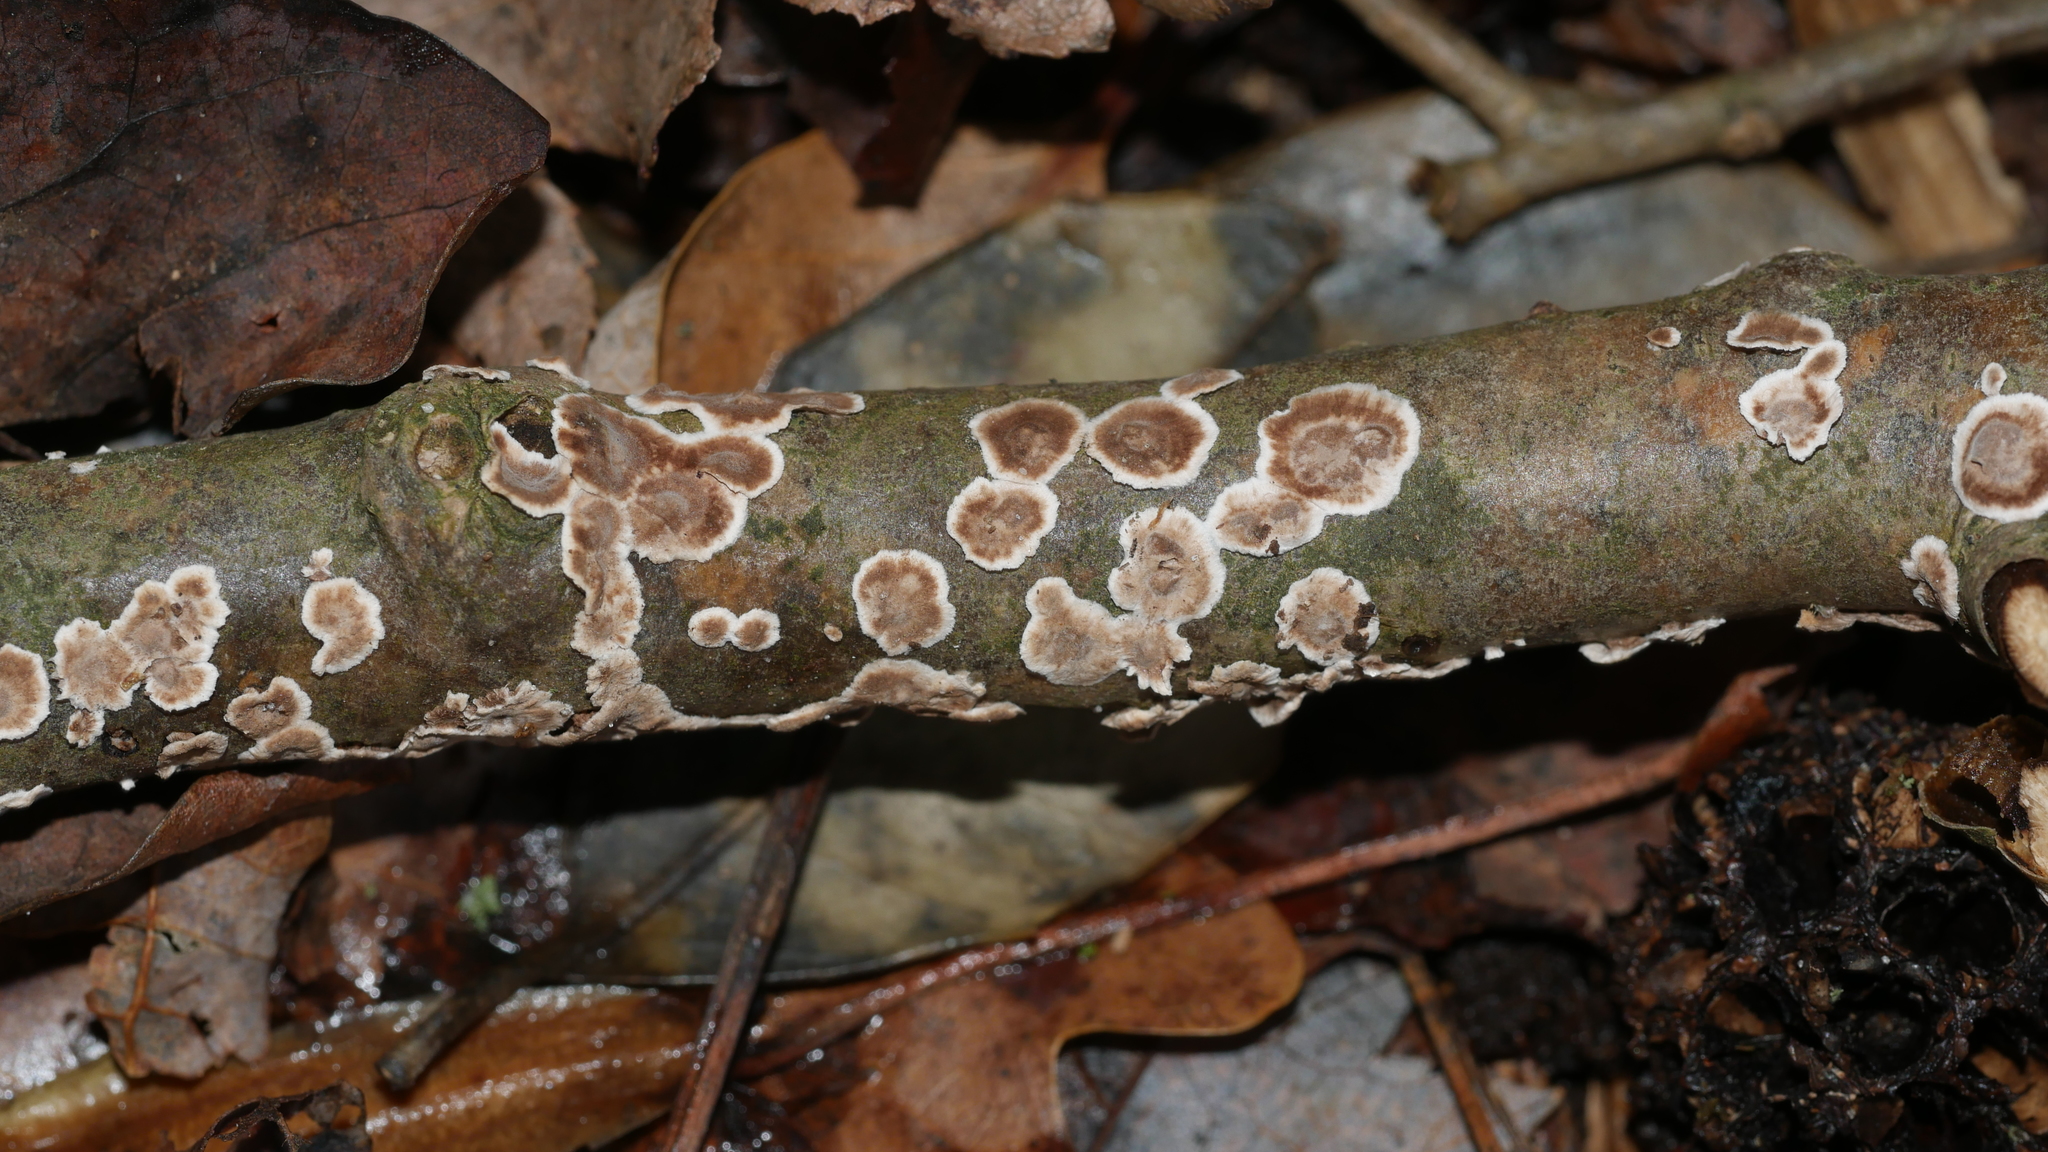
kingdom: Fungi
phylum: Basidiomycota
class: Agaricomycetes
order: Russulales
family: Peniophoraceae
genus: Peniophora
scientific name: Peniophora albobadia
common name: Giraffe spots
